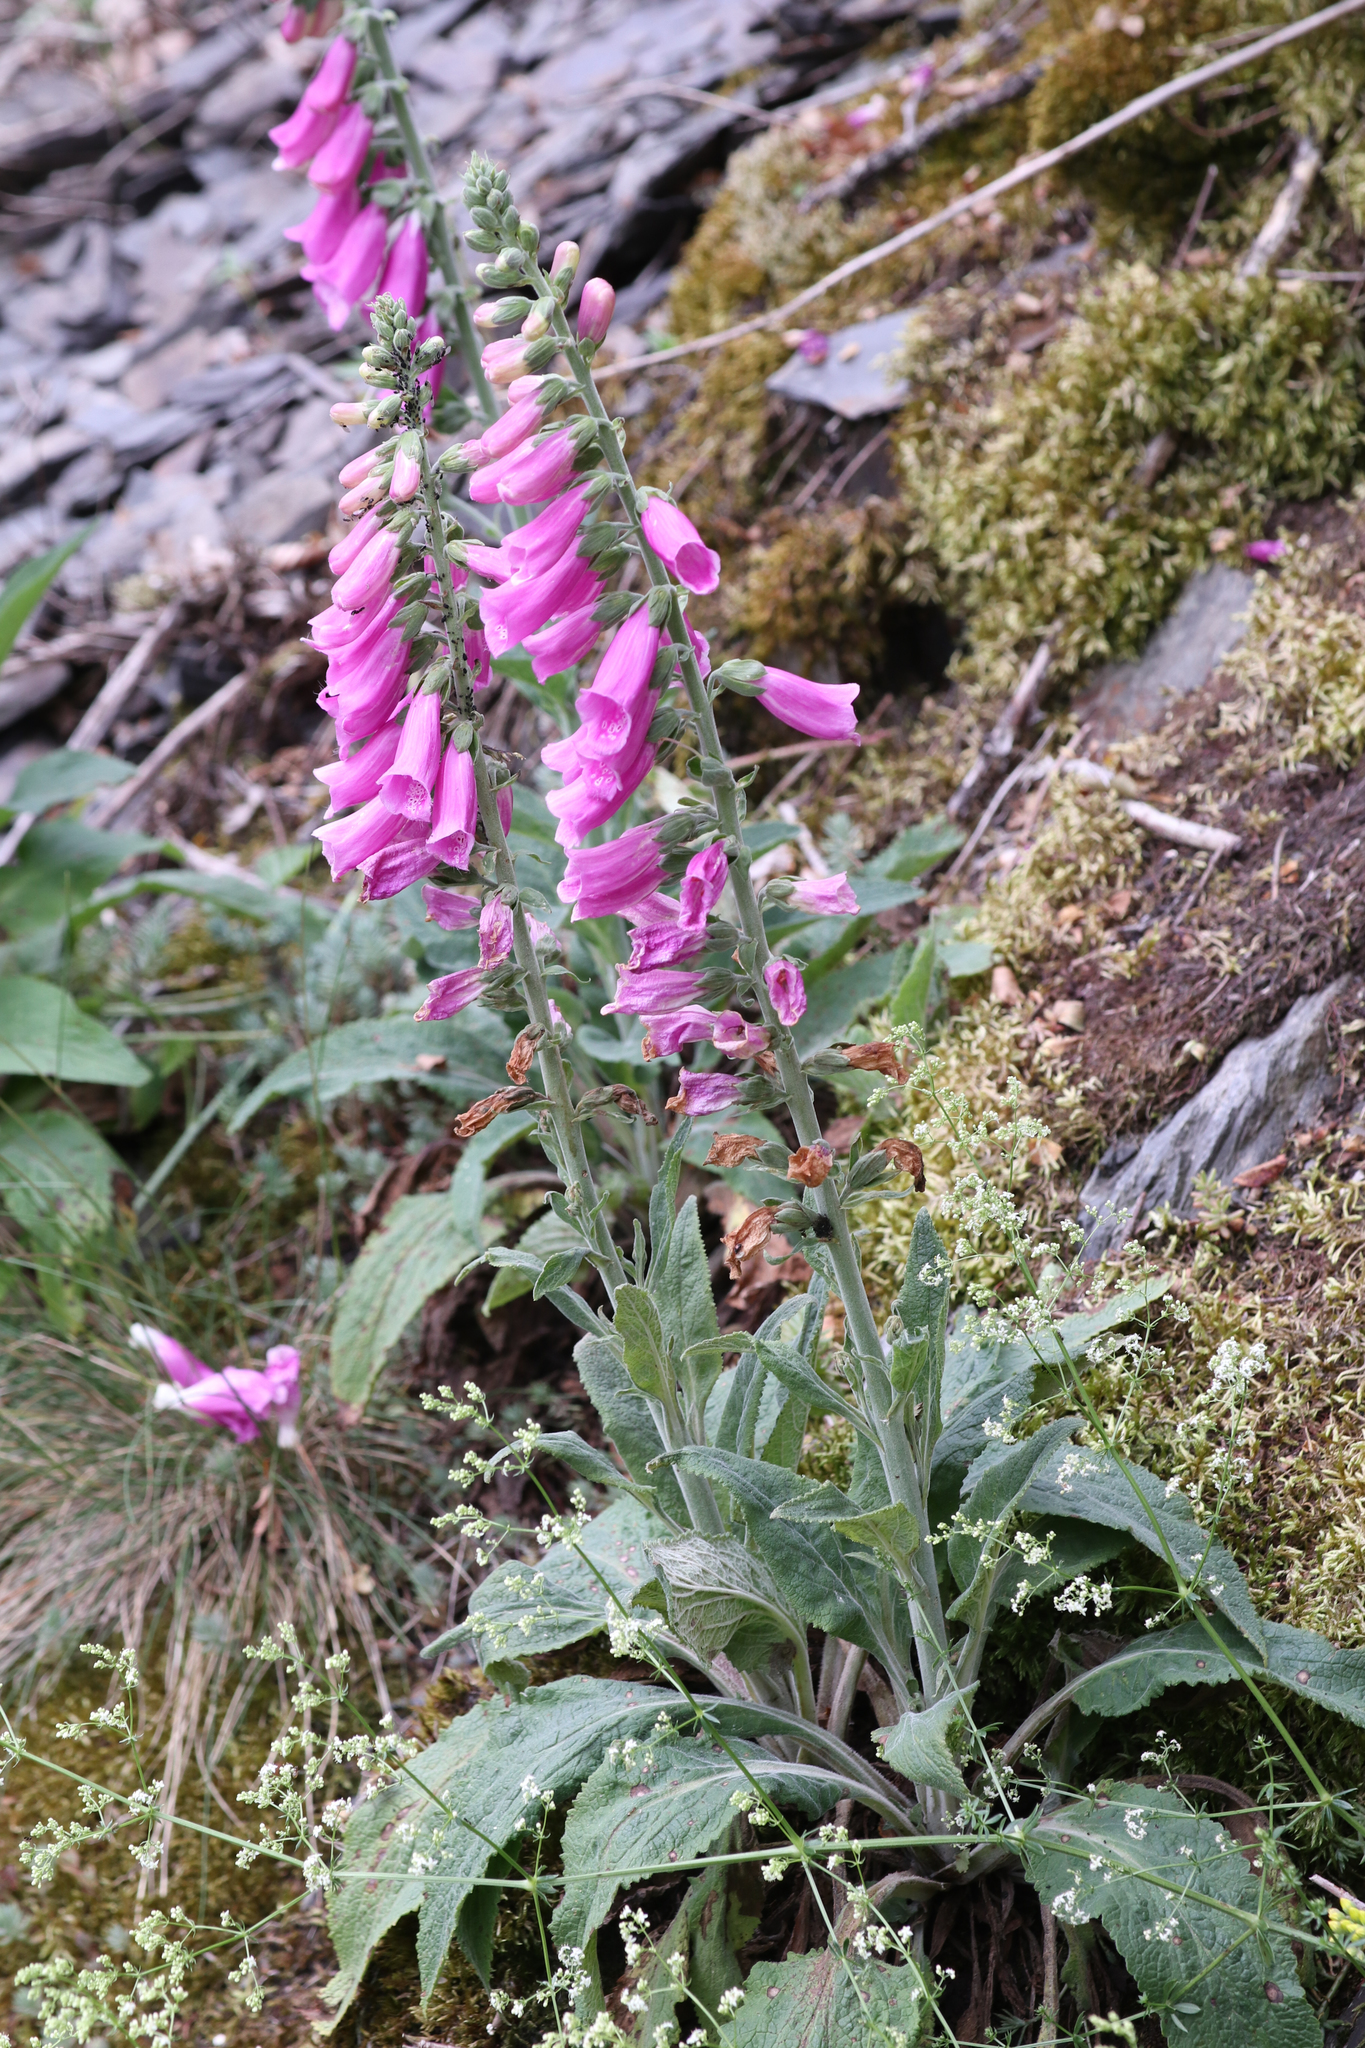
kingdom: Plantae
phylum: Tracheophyta
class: Magnoliopsida
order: Lamiales
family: Plantaginaceae
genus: Digitalis
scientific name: Digitalis purpurea
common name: Foxglove
